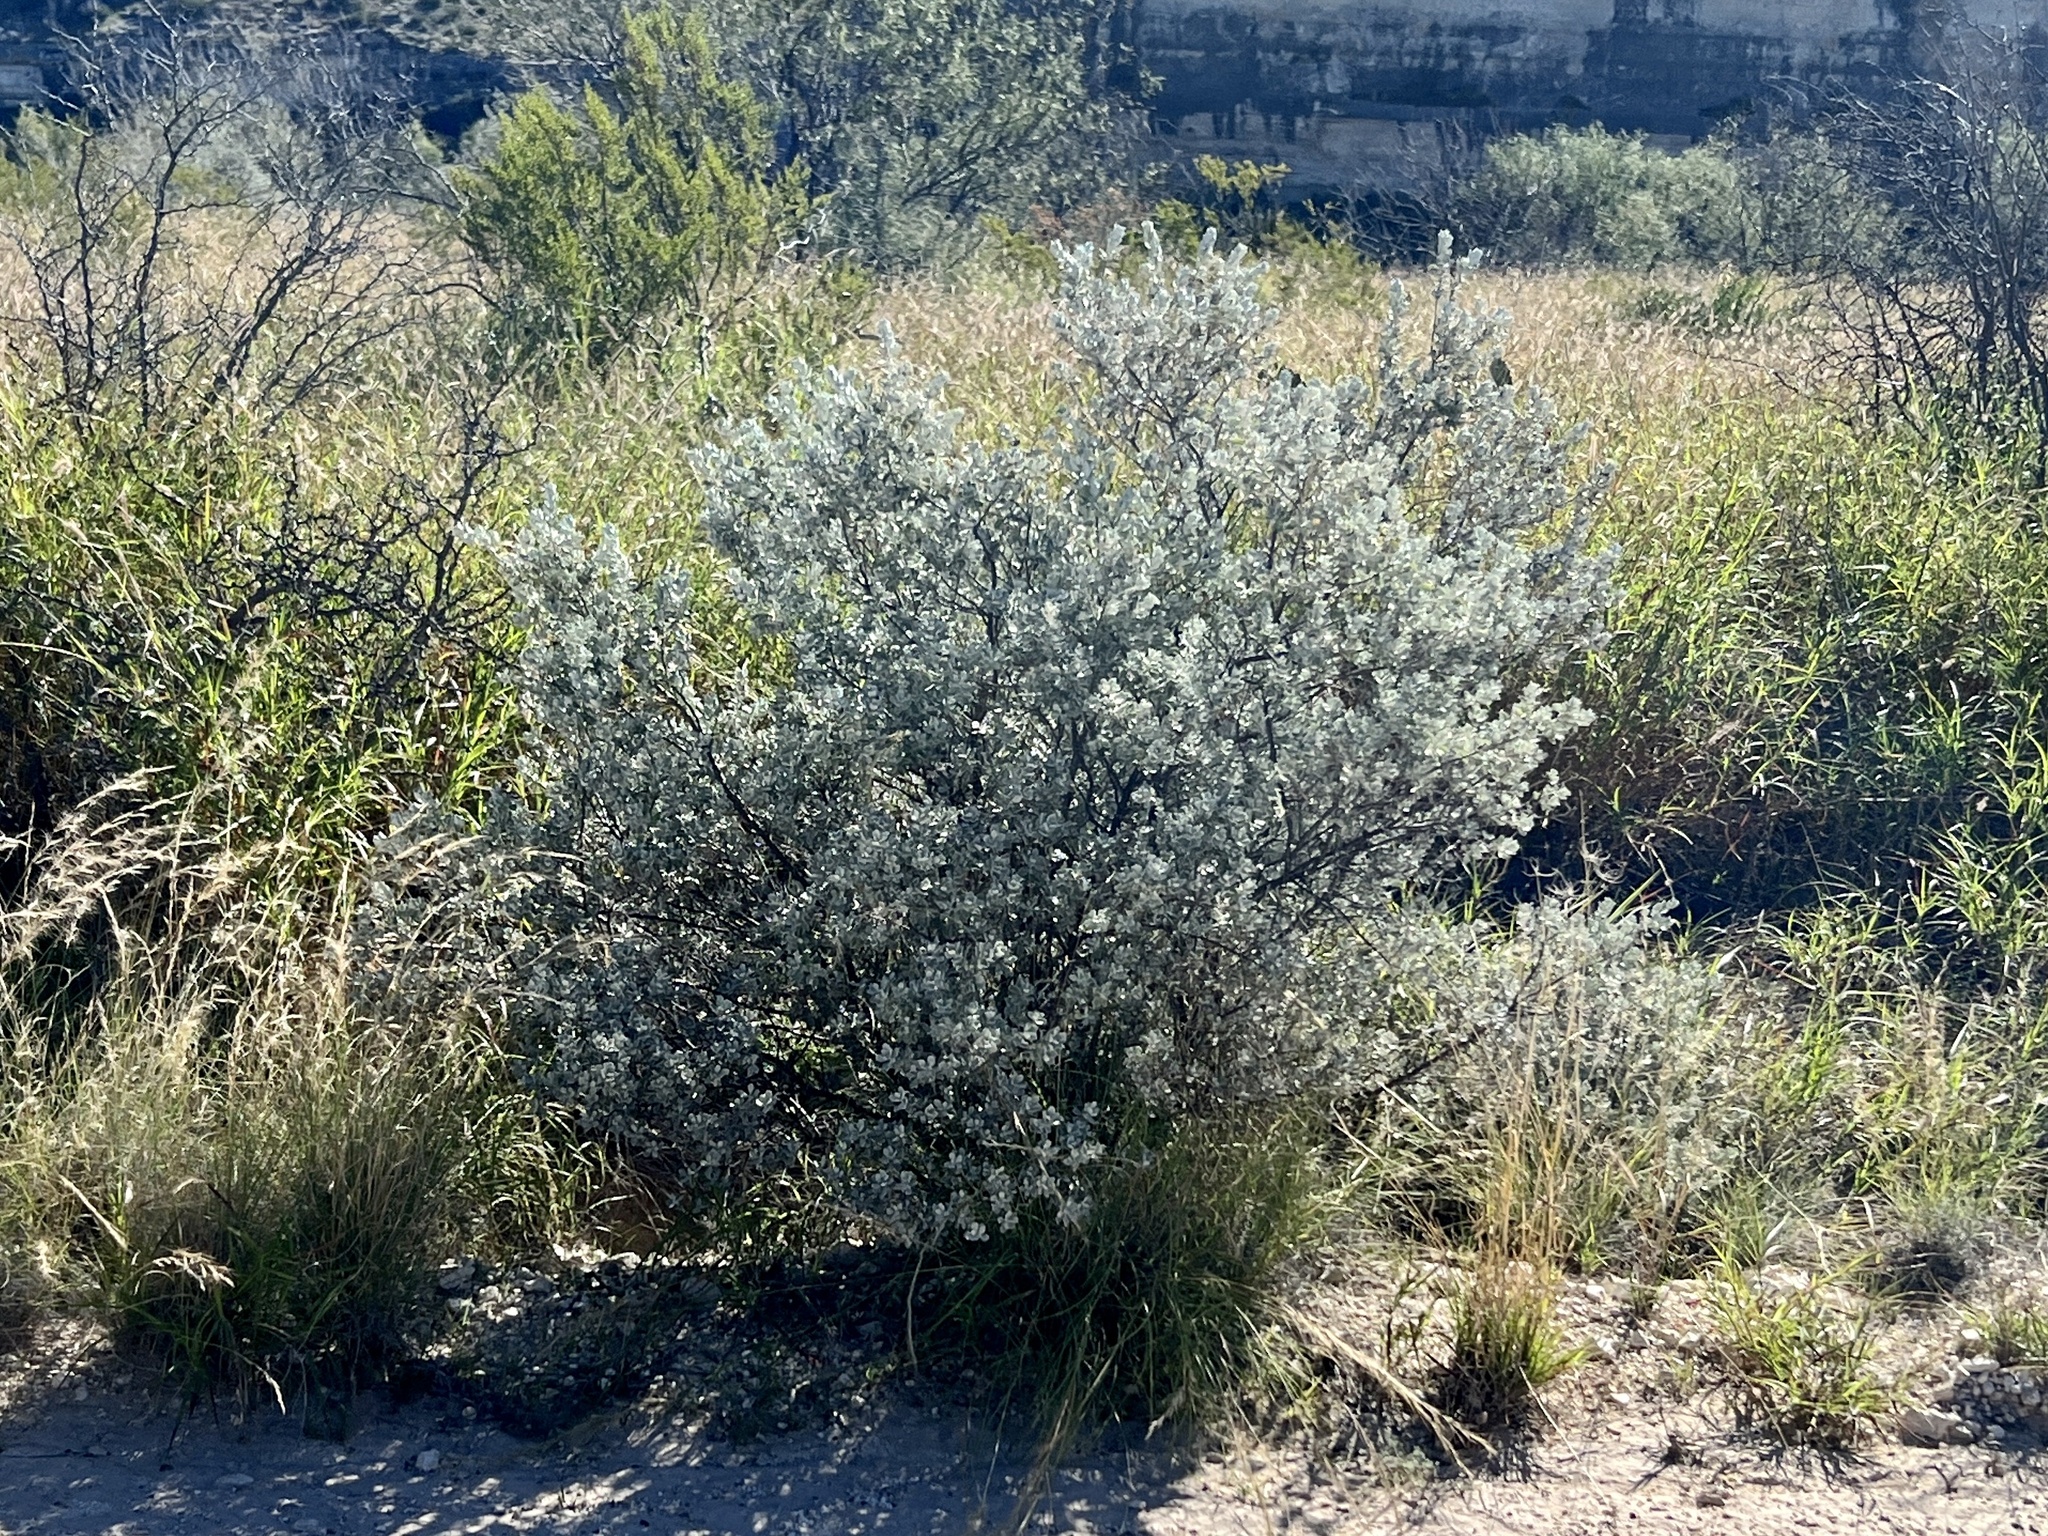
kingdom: Plantae
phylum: Tracheophyta
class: Magnoliopsida
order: Lamiales
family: Scrophulariaceae
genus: Leucophyllum
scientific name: Leucophyllum frutescens
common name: Texas silverleaf
